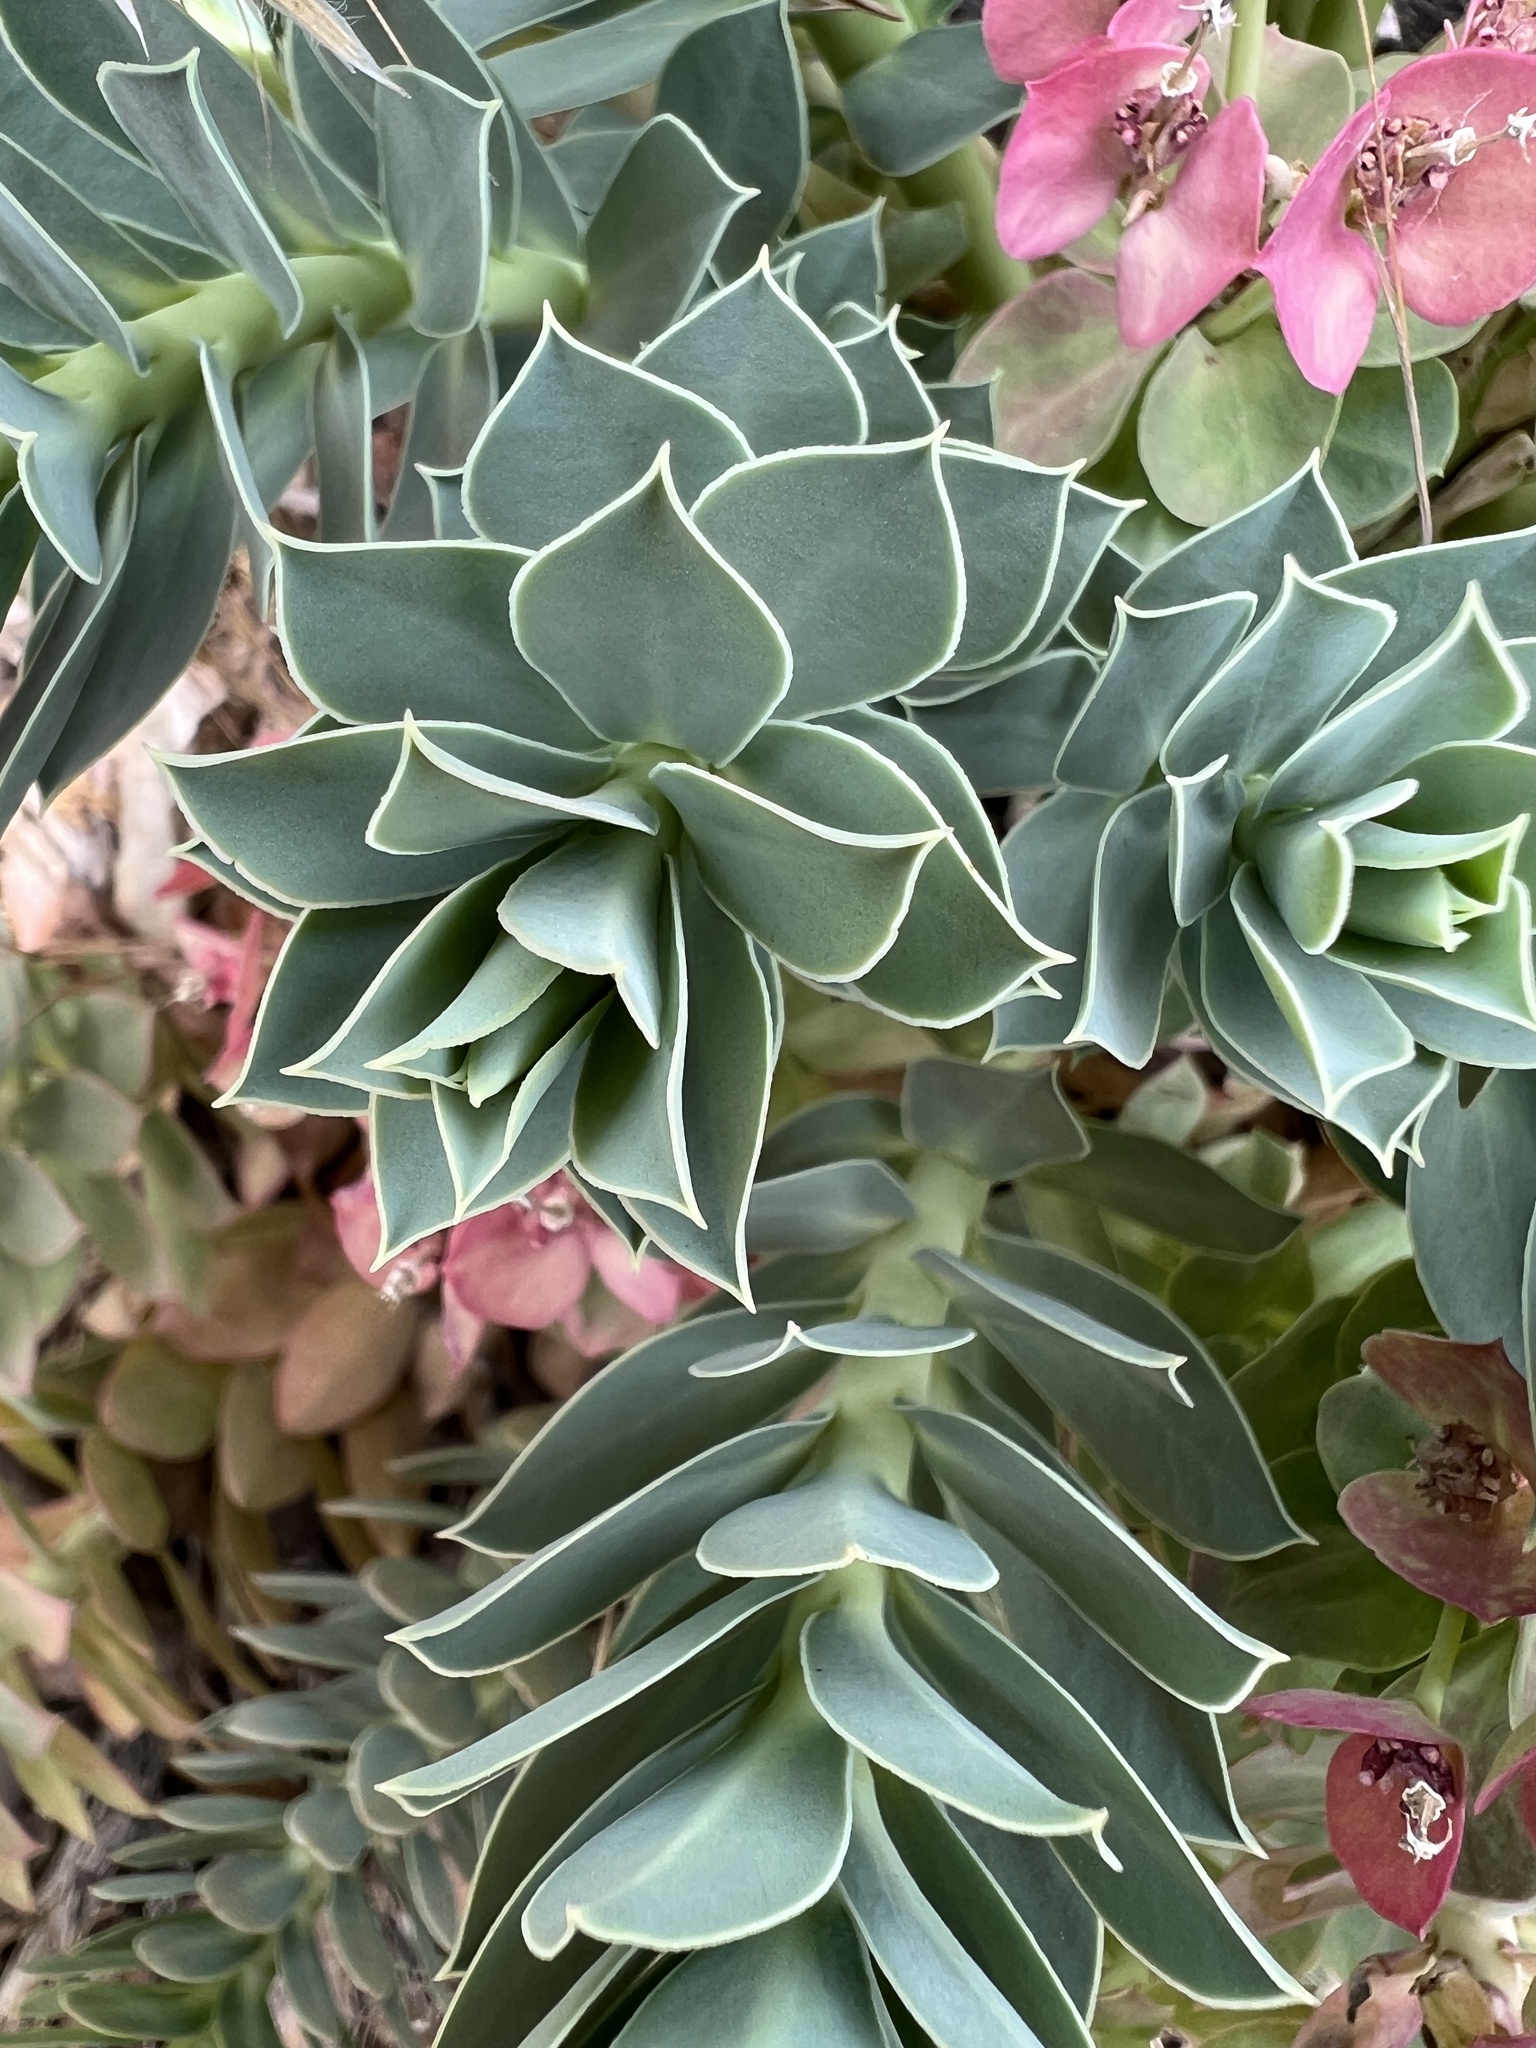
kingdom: Plantae
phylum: Tracheophyta
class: Magnoliopsida
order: Malpighiales
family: Euphorbiaceae
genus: Euphorbia
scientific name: Euphorbia myrsinites
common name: Myrtle spurge
